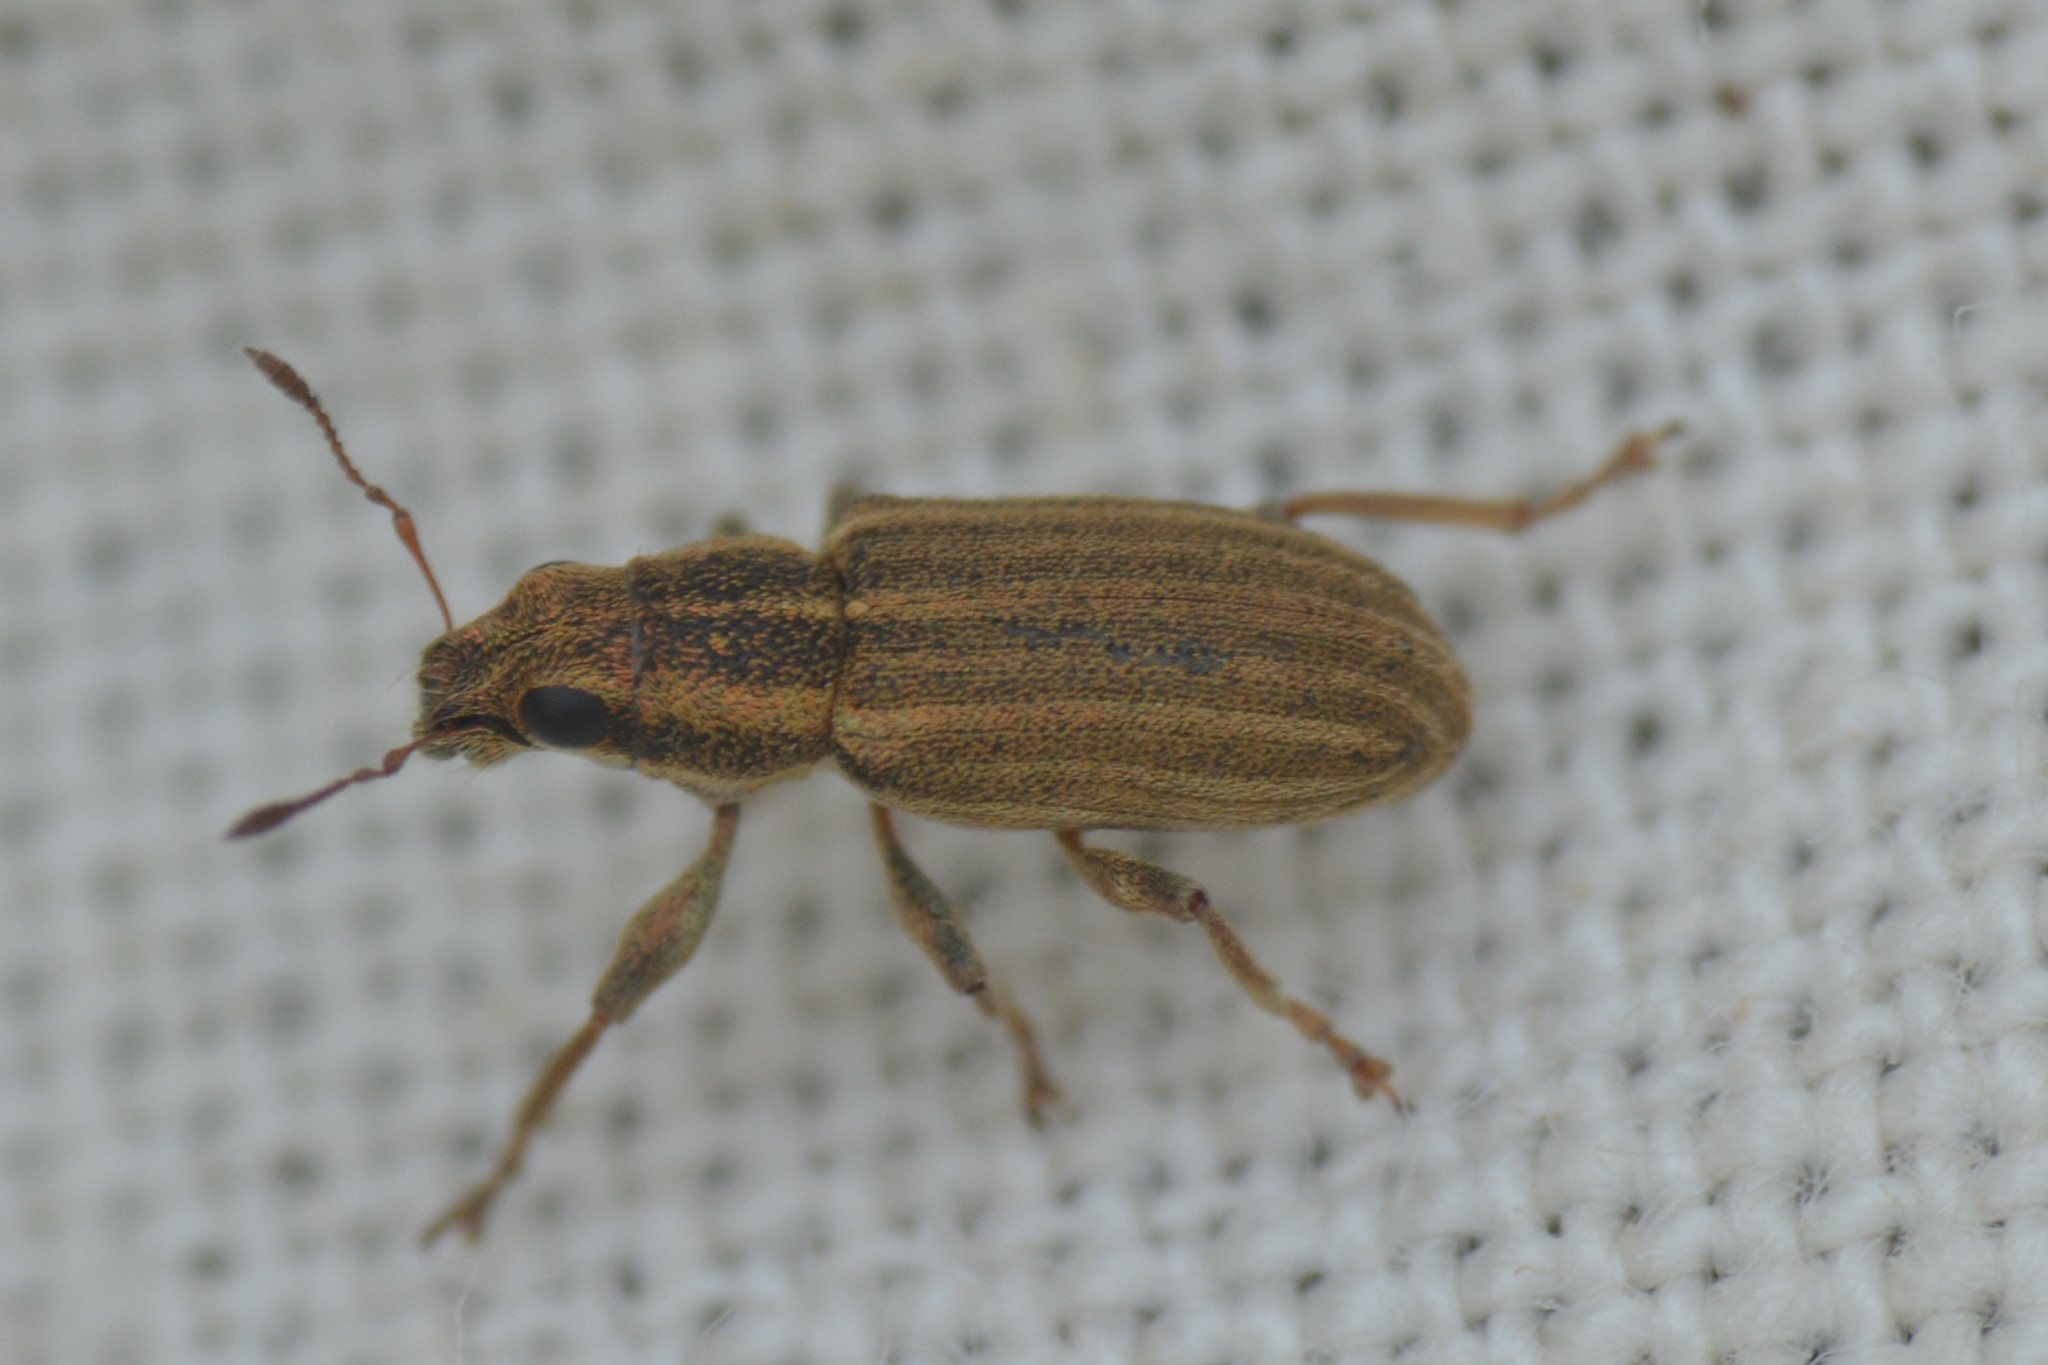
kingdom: Animalia
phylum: Arthropoda
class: Insecta
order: Coleoptera
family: Curculionidae
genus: Sitona
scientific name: Sitona lineatus
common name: Weevil
